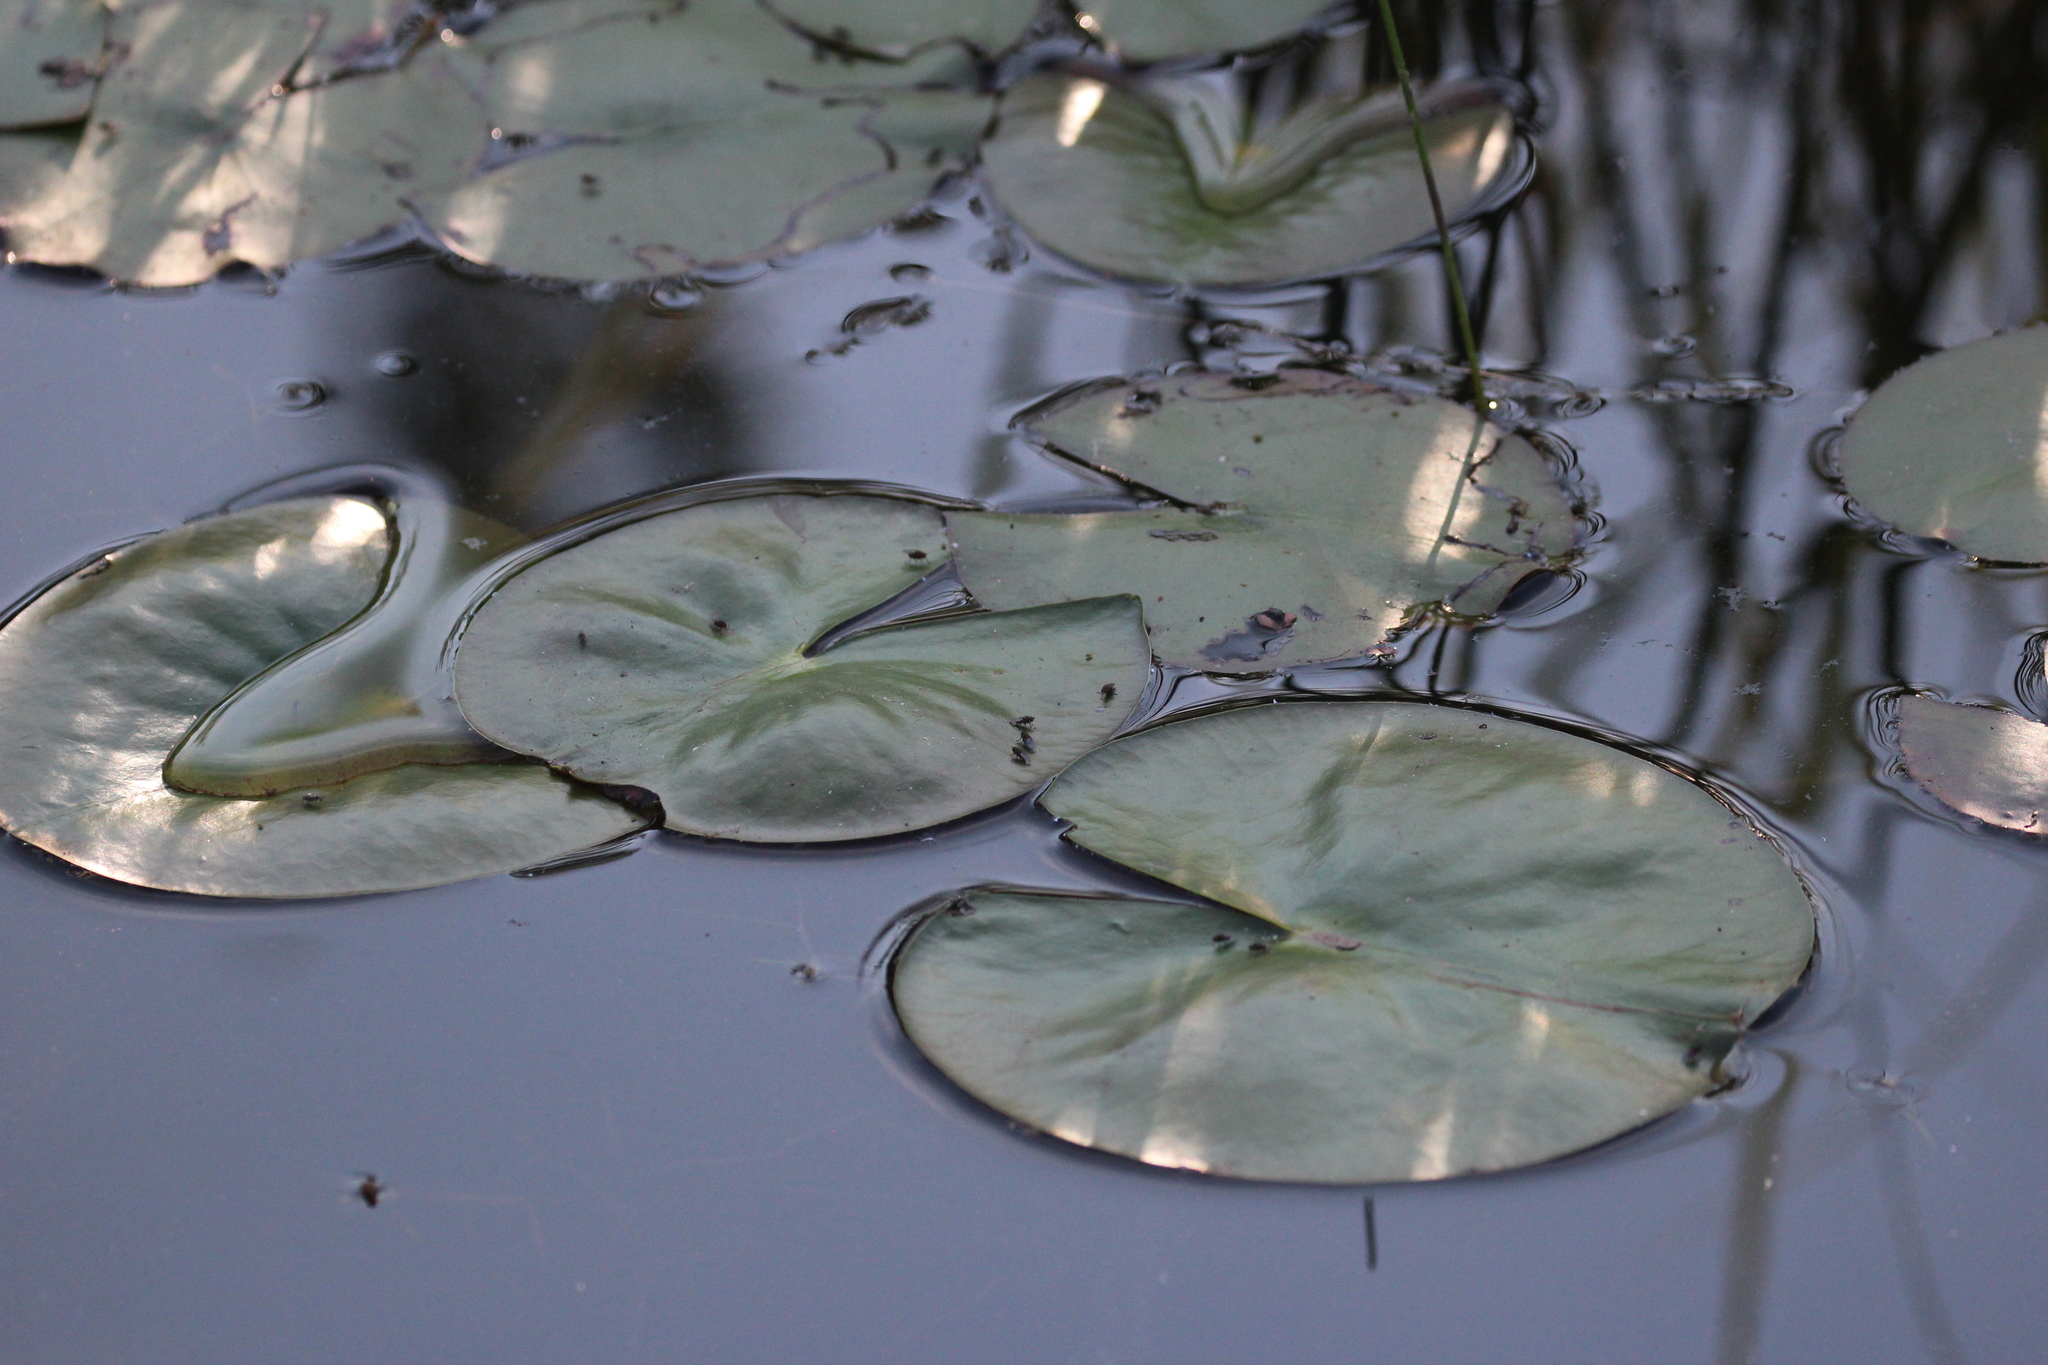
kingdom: Plantae
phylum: Tracheophyta
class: Magnoliopsida
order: Nymphaeales
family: Nymphaeaceae
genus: Nuphar
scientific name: Nuphar variegata
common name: Beaver-root
